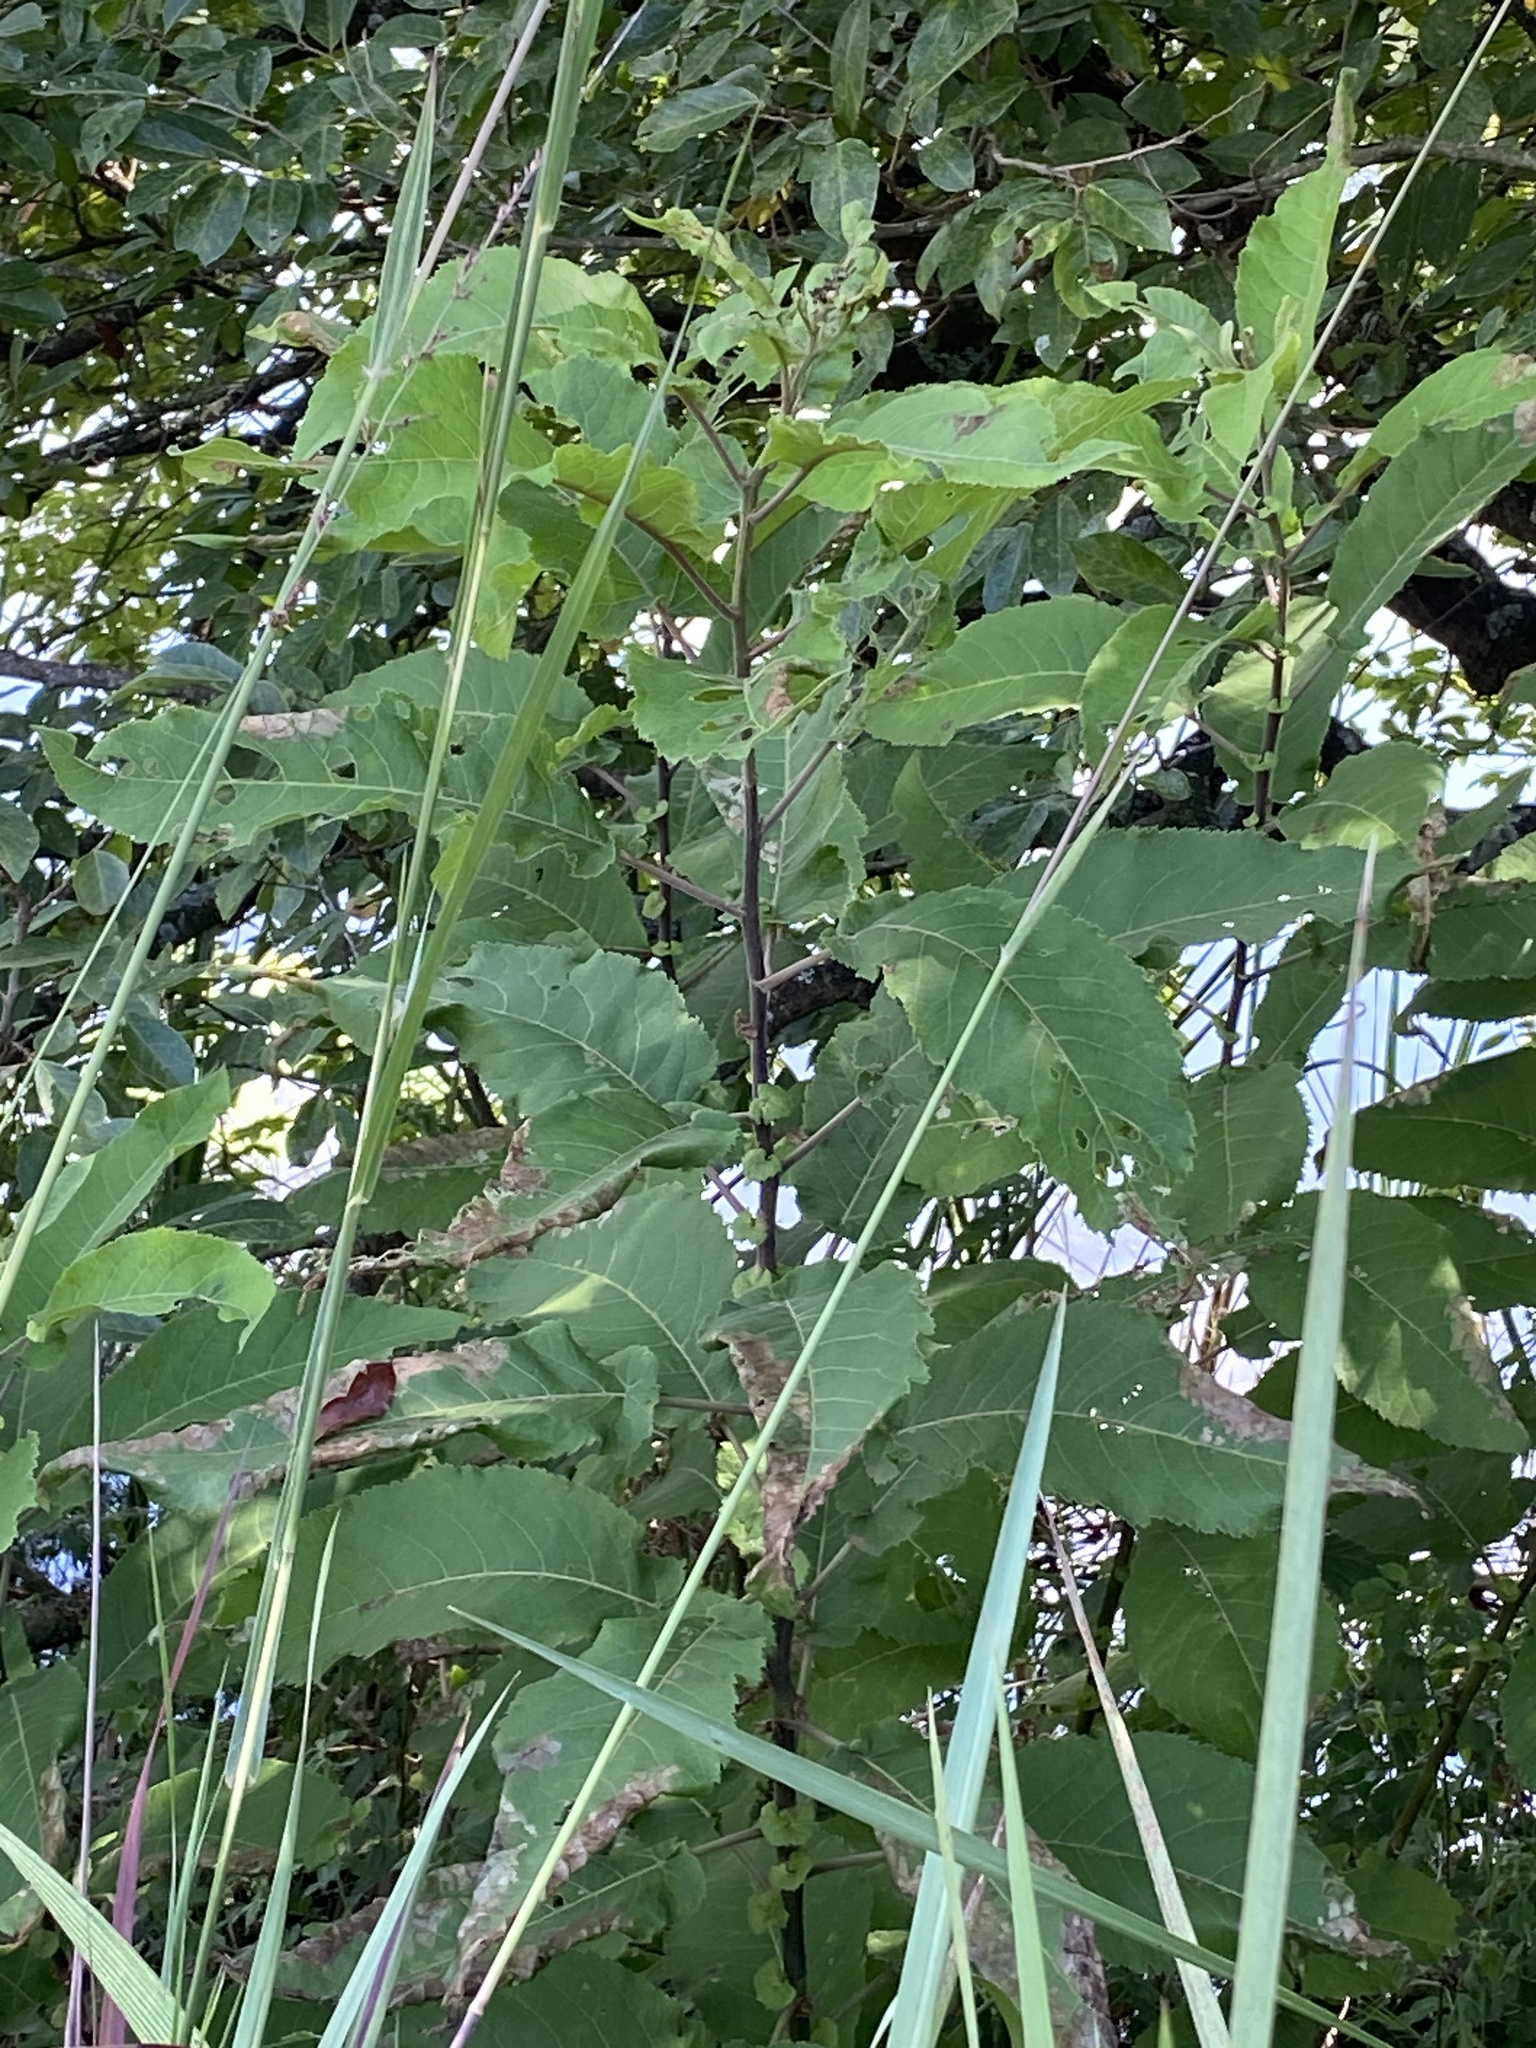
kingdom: Plantae
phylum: Tracheophyta
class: Magnoliopsida
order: Asterales
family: Asteraceae
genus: Gymnanthemum
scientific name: Gymnanthemum myrianthum
